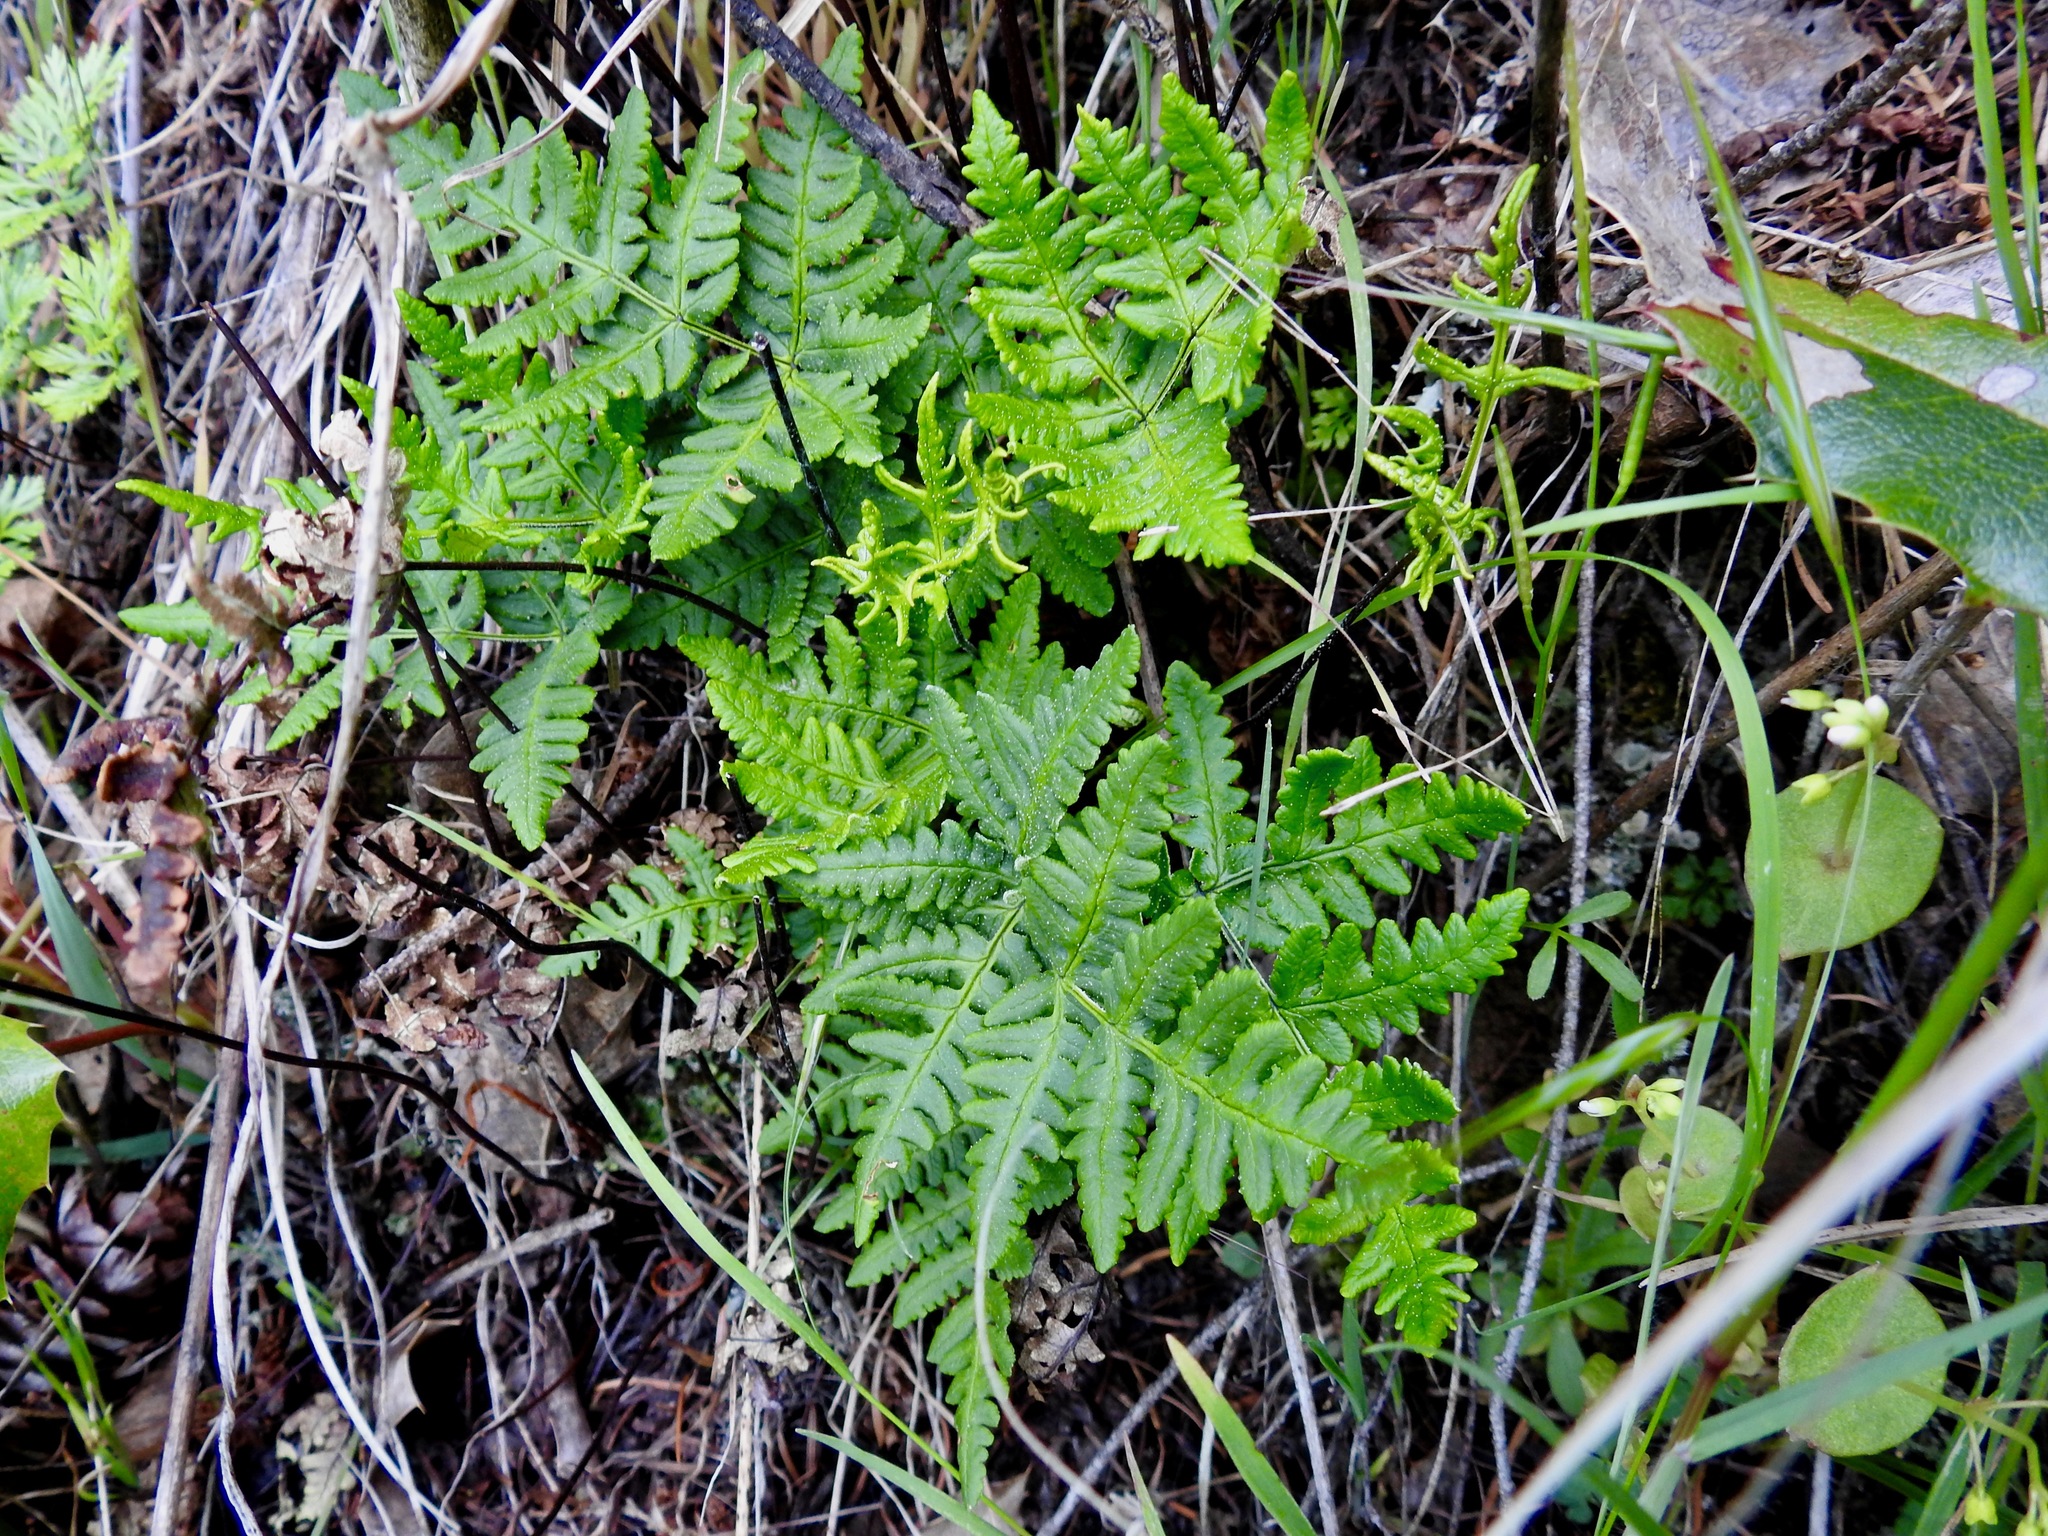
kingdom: Plantae
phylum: Tracheophyta
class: Polypodiopsida
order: Polypodiales
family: Pteridaceae
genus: Pentagramma
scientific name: Pentagramma triangularis
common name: Gold fern
